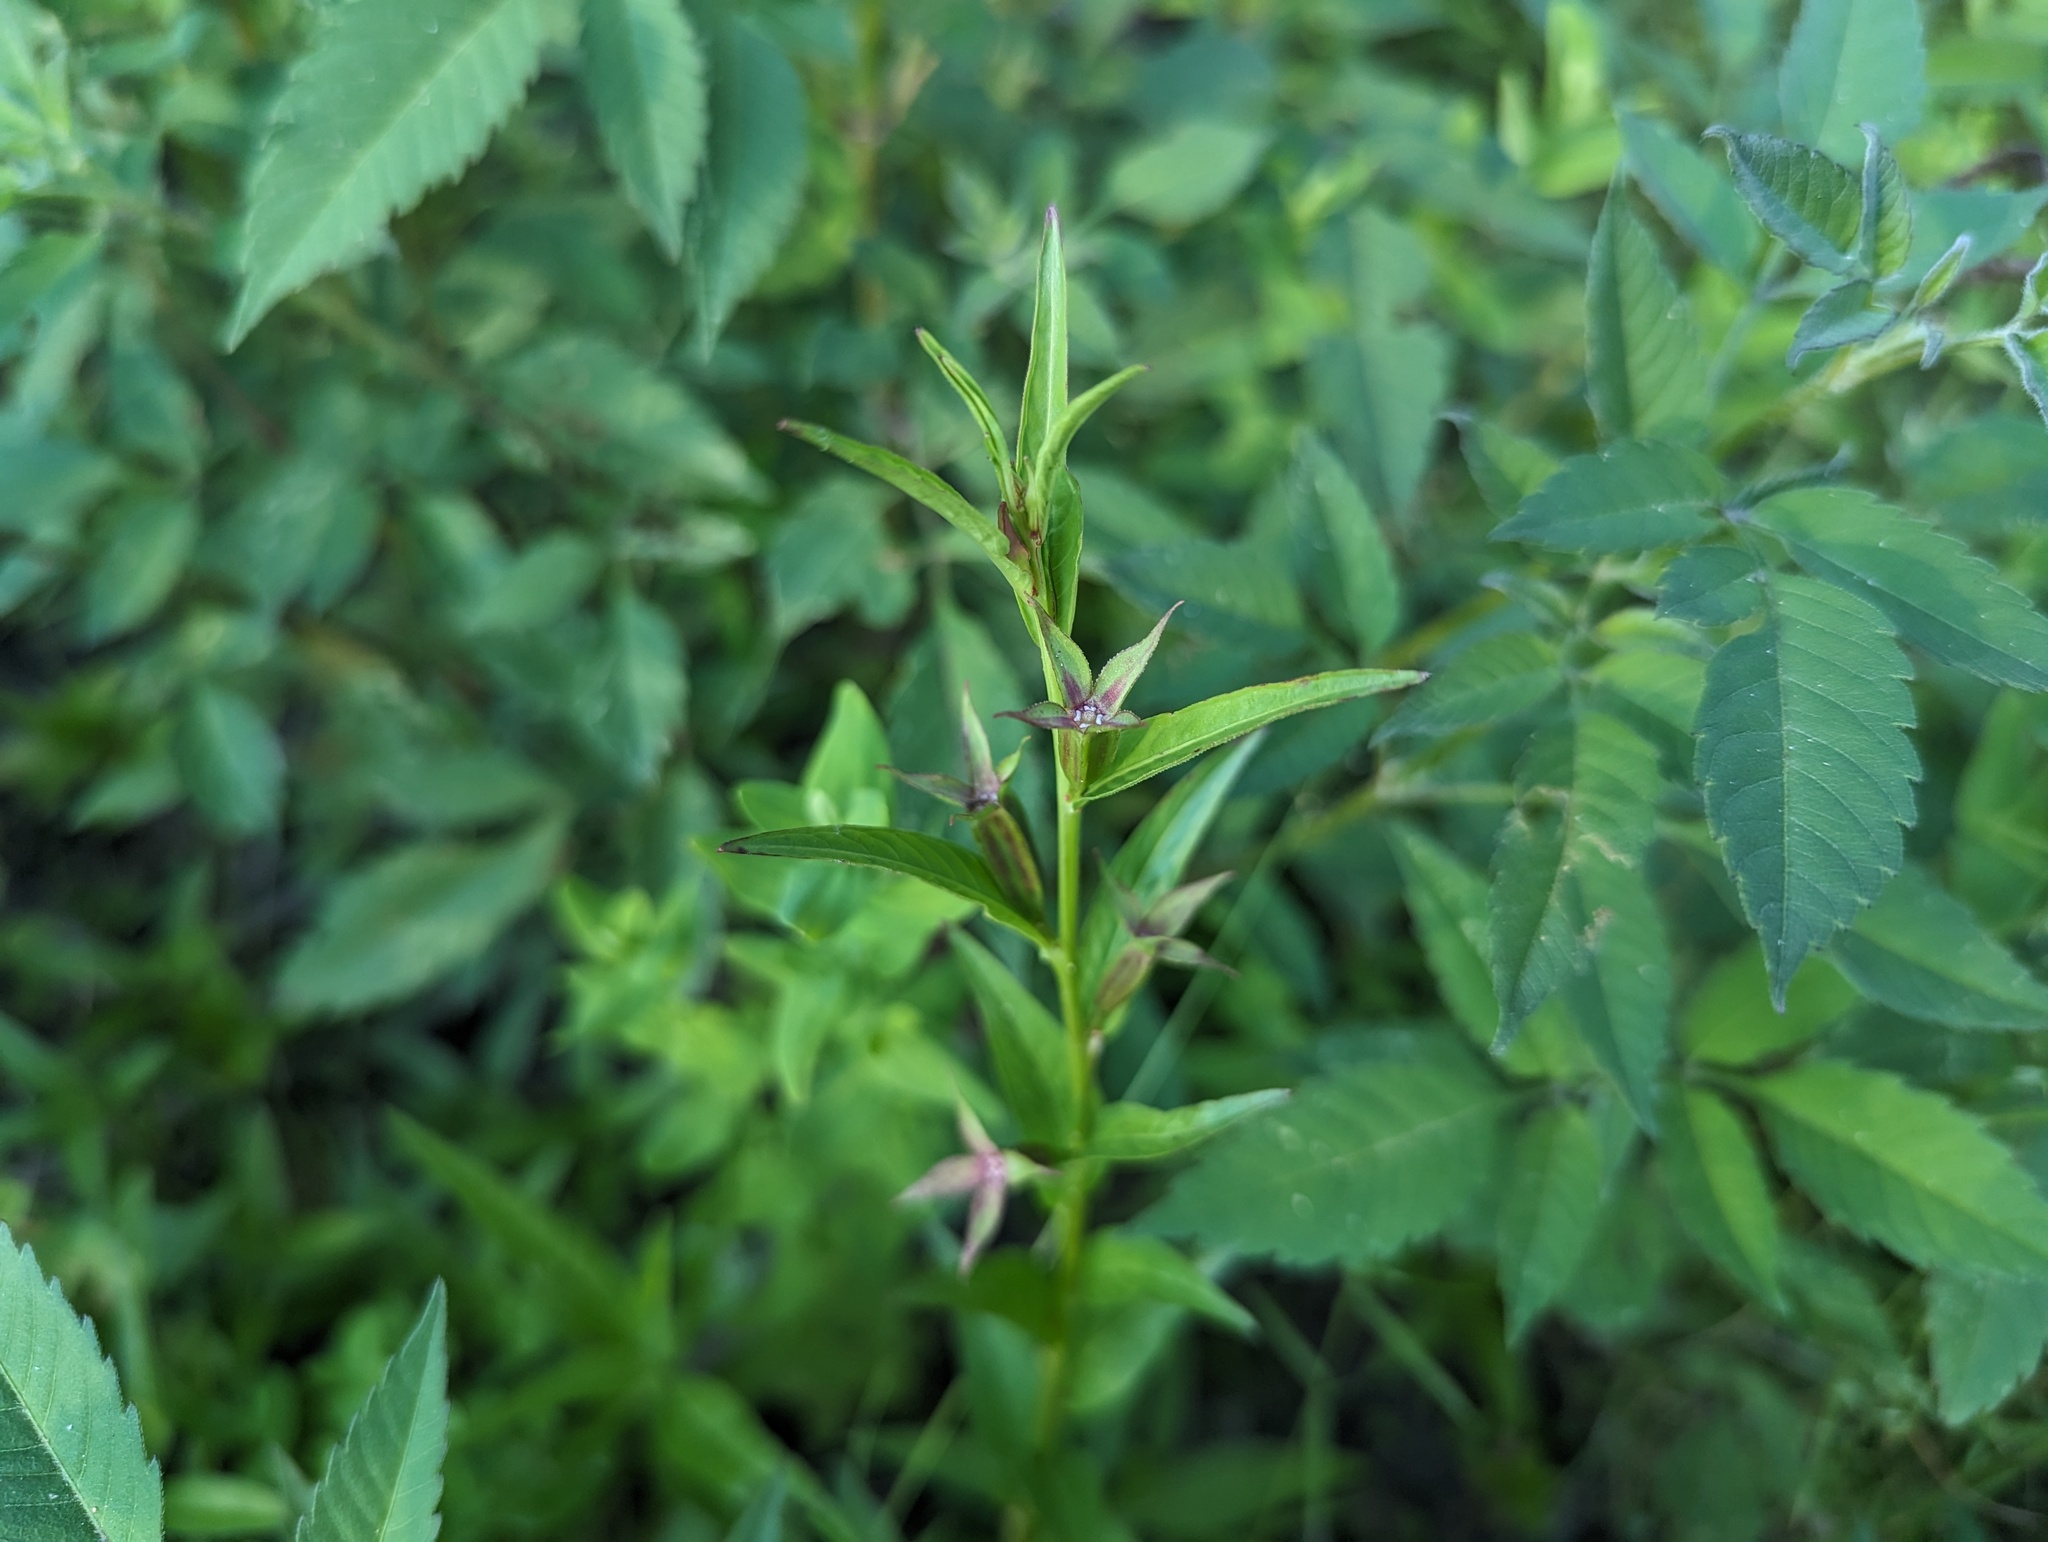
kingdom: Plantae
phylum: Tracheophyta
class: Magnoliopsida
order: Myrtales
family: Onagraceae
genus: Ludwigia
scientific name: Ludwigia decurrens
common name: Winged water-primrose
